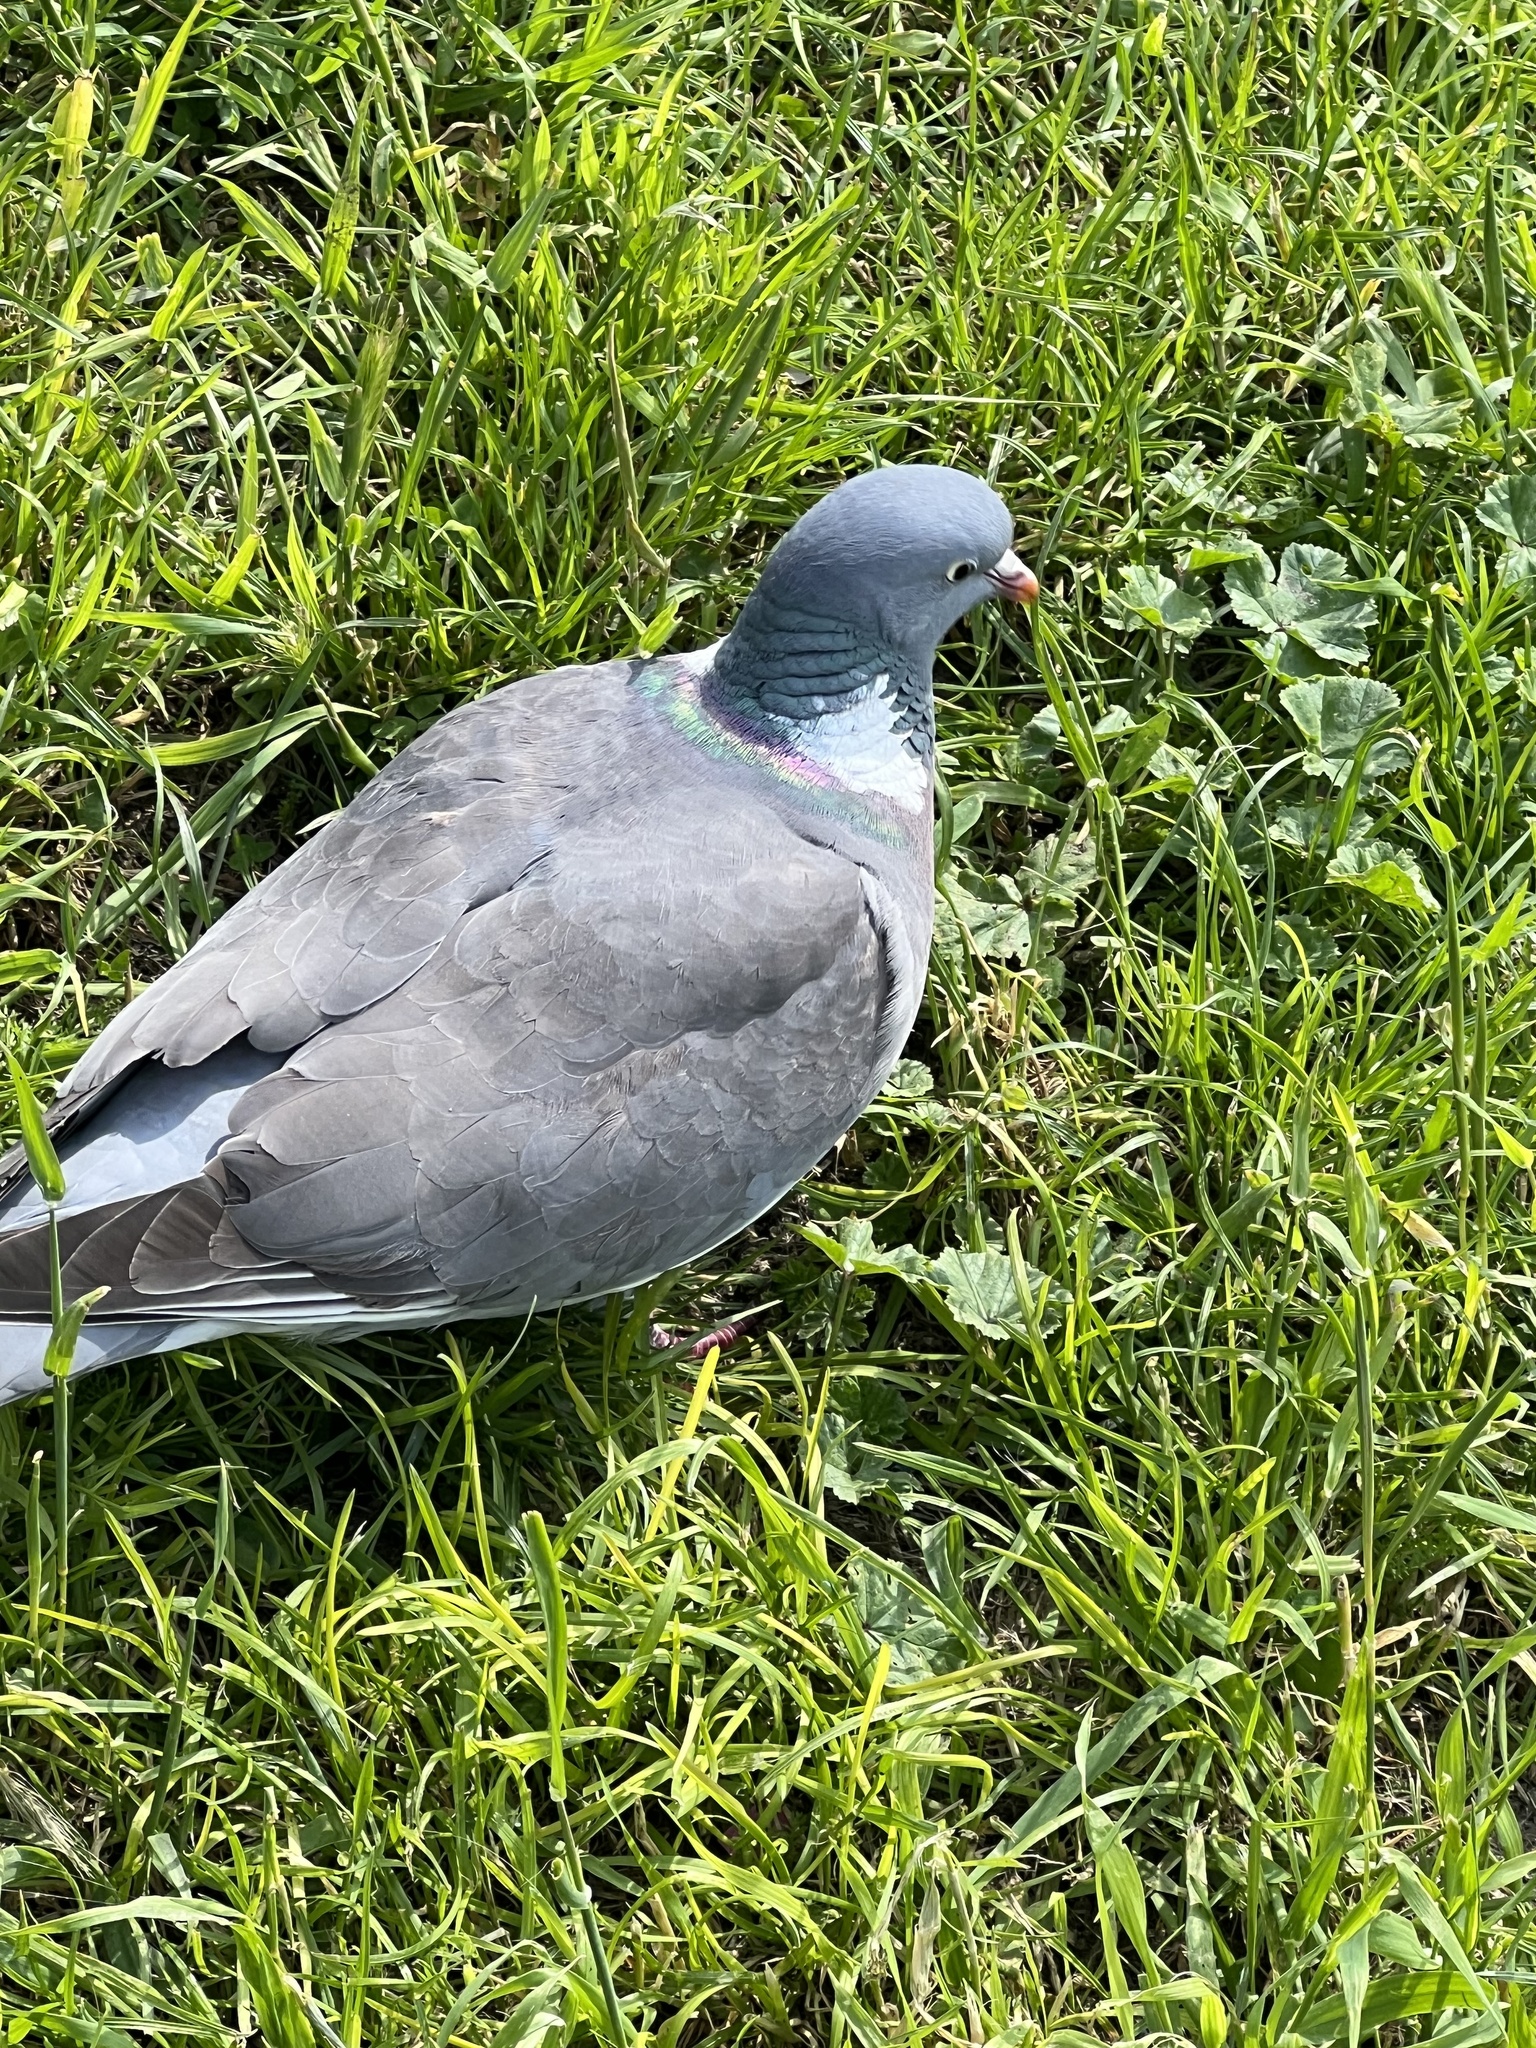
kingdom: Animalia
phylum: Chordata
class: Aves
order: Columbiformes
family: Columbidae
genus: Columba
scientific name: Columba palumbus
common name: Common wood pigeon
